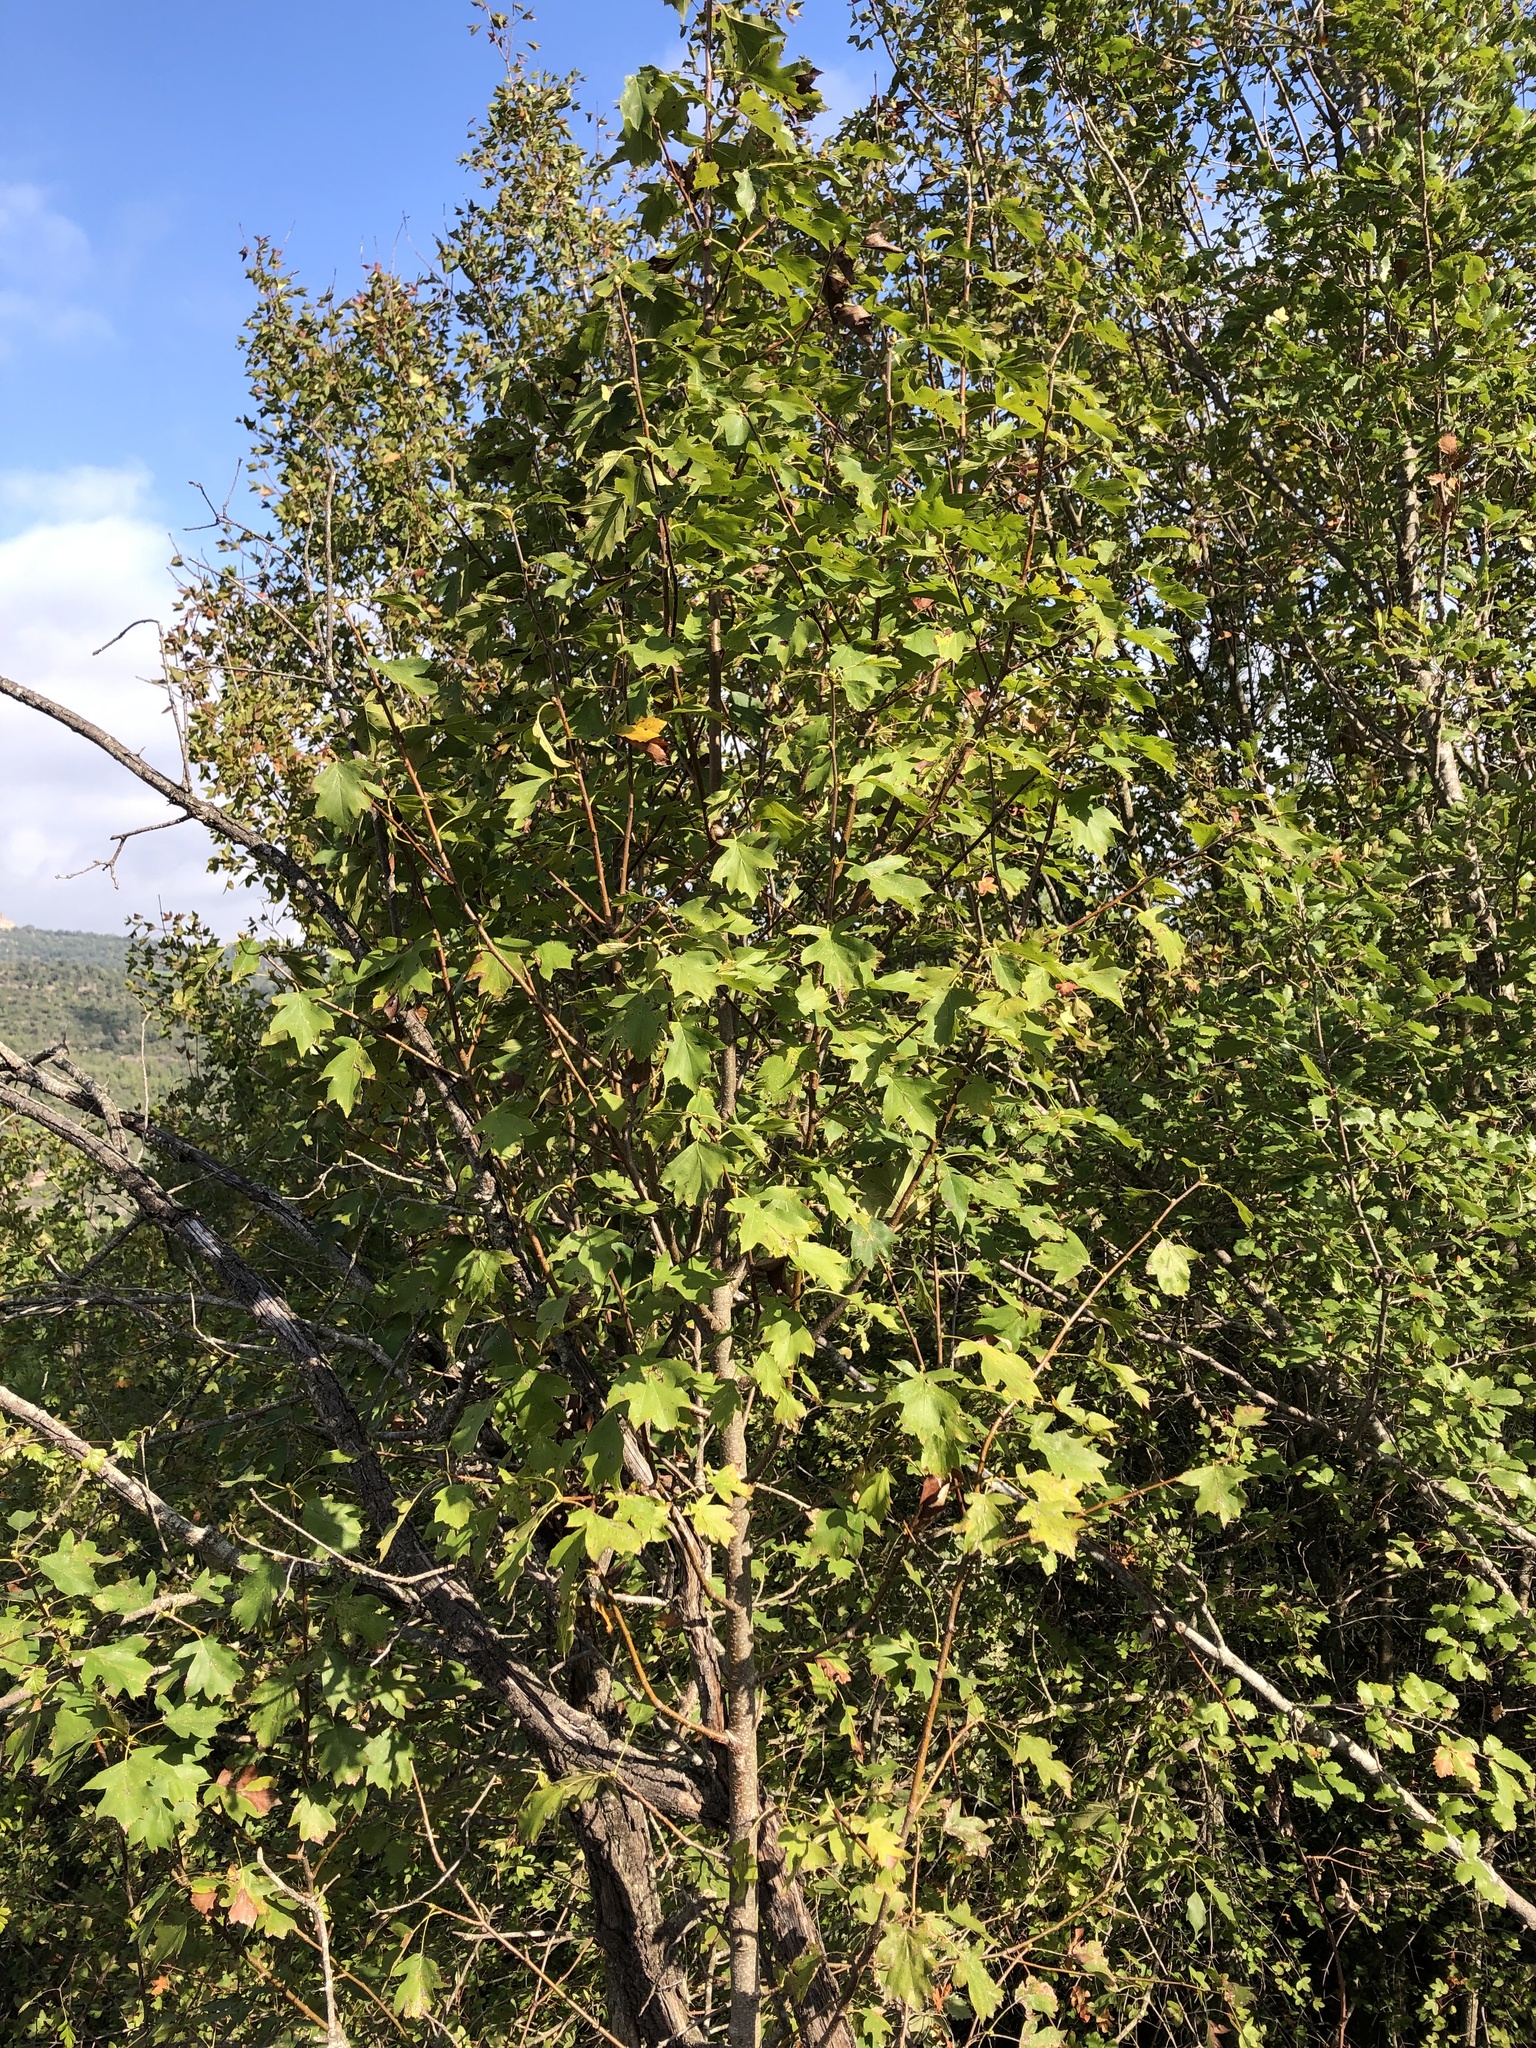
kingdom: Plantae
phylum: Tracheophyta
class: Magnoliopsida
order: Rosales
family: Rosaceae
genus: Torminalis
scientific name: Torminalis glaberrima
